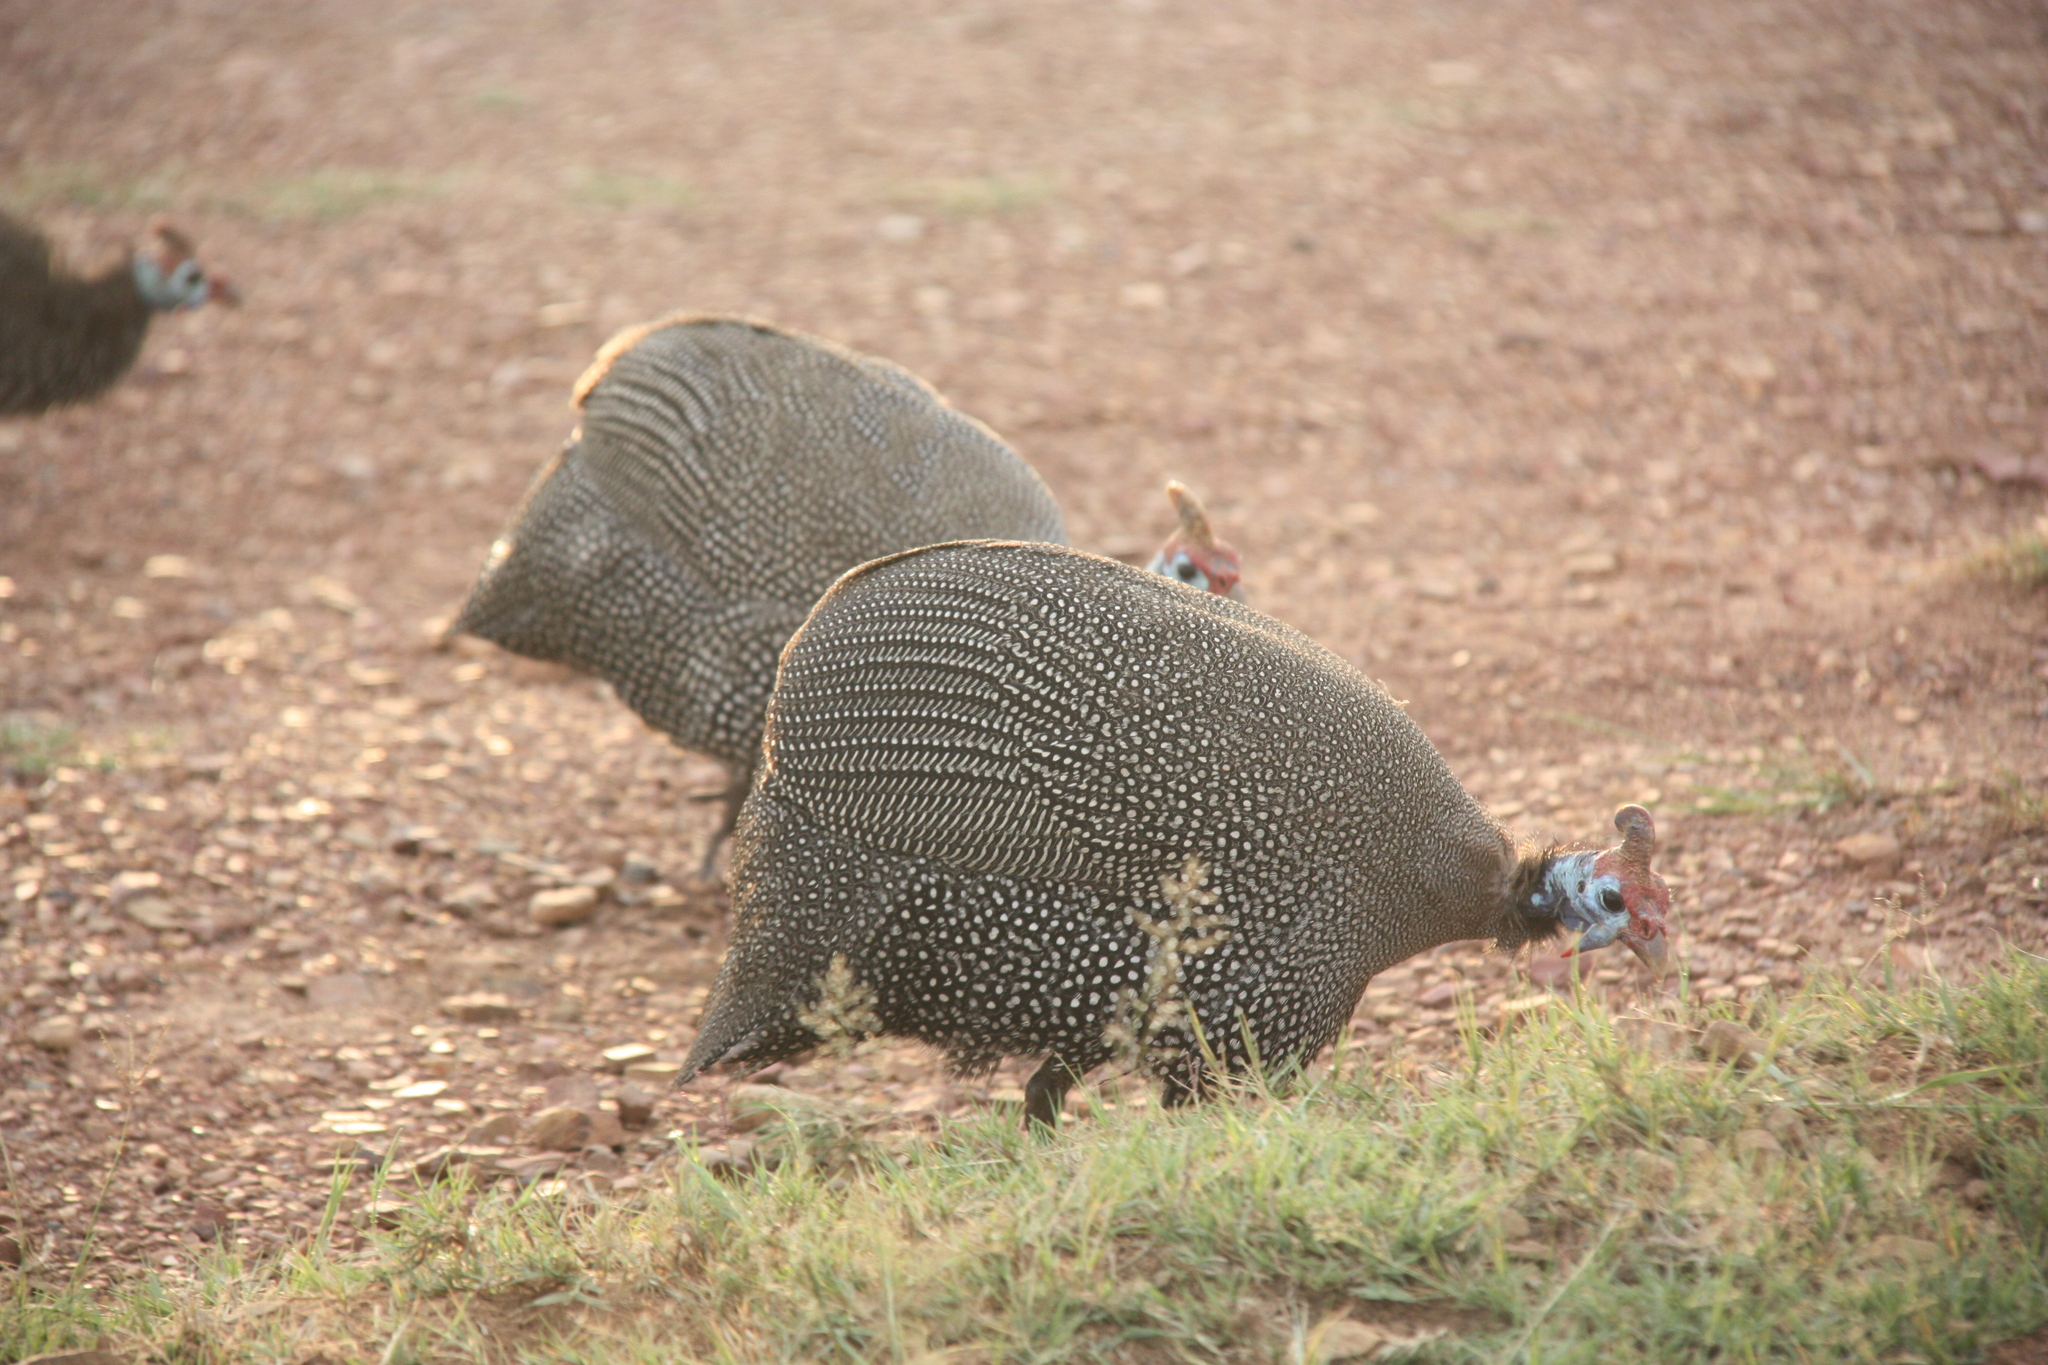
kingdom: Animalia
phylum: Chordata
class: Aves
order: Galliformes
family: Numididae
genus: Numida
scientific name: Numida meleagris
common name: Helmeted guineafowl
